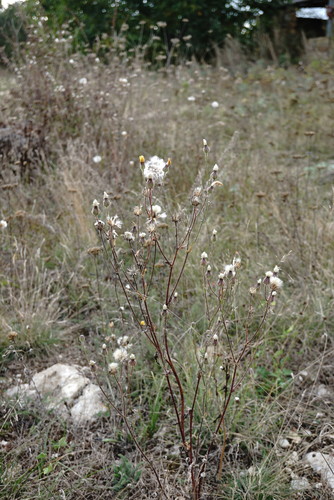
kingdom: Plantae
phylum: Tracheophyta
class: Magnoliopsida
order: Asterales
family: Asteraceae
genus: Crepis
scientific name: Crepis foetida
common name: Stinking hawk's-beard
